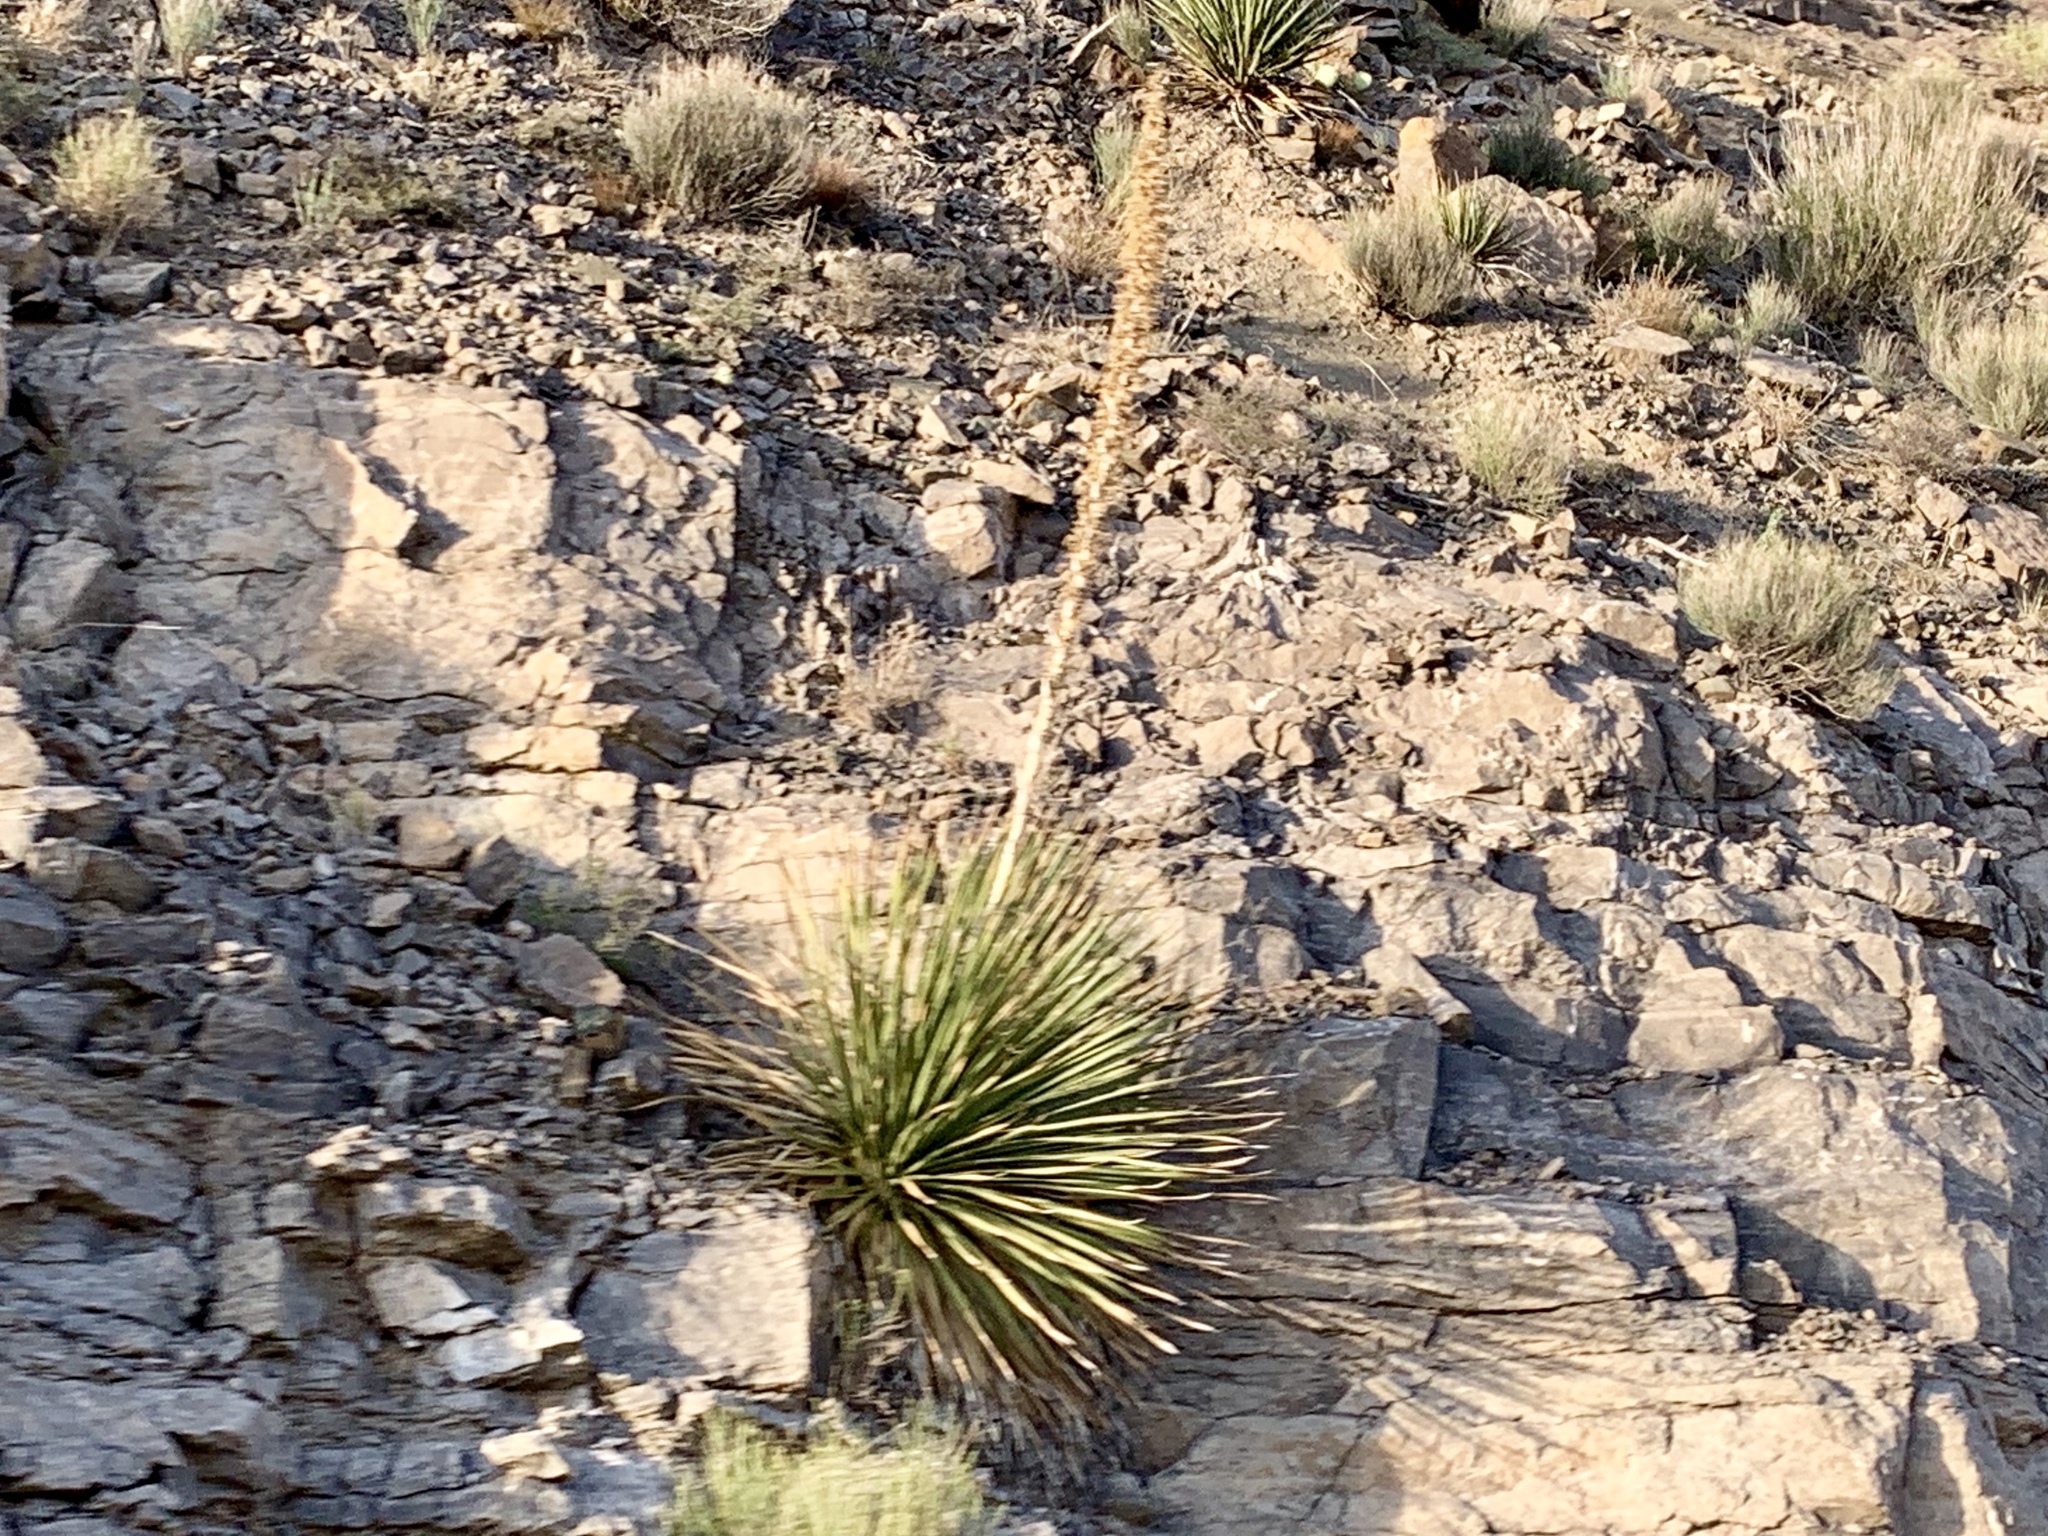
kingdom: Plantae
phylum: Tracheophyta
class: Liliopsida
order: Asparagales
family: Asparagaceae
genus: Dasylirion
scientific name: Dasylirion wheeleri
